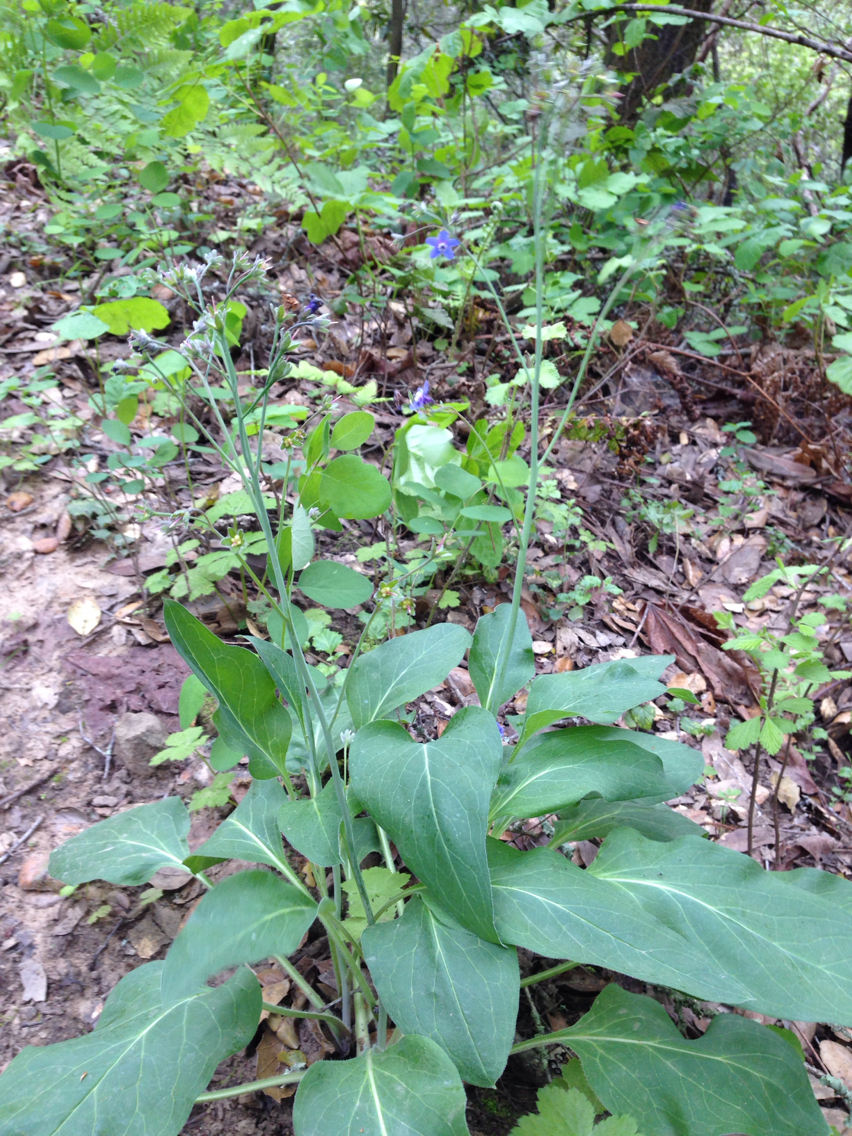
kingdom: Plantae
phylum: Tracheophyta
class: Magnoliopsida
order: Boraginales
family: Boraginaceae
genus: Adelinia
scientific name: Adelinia grande
